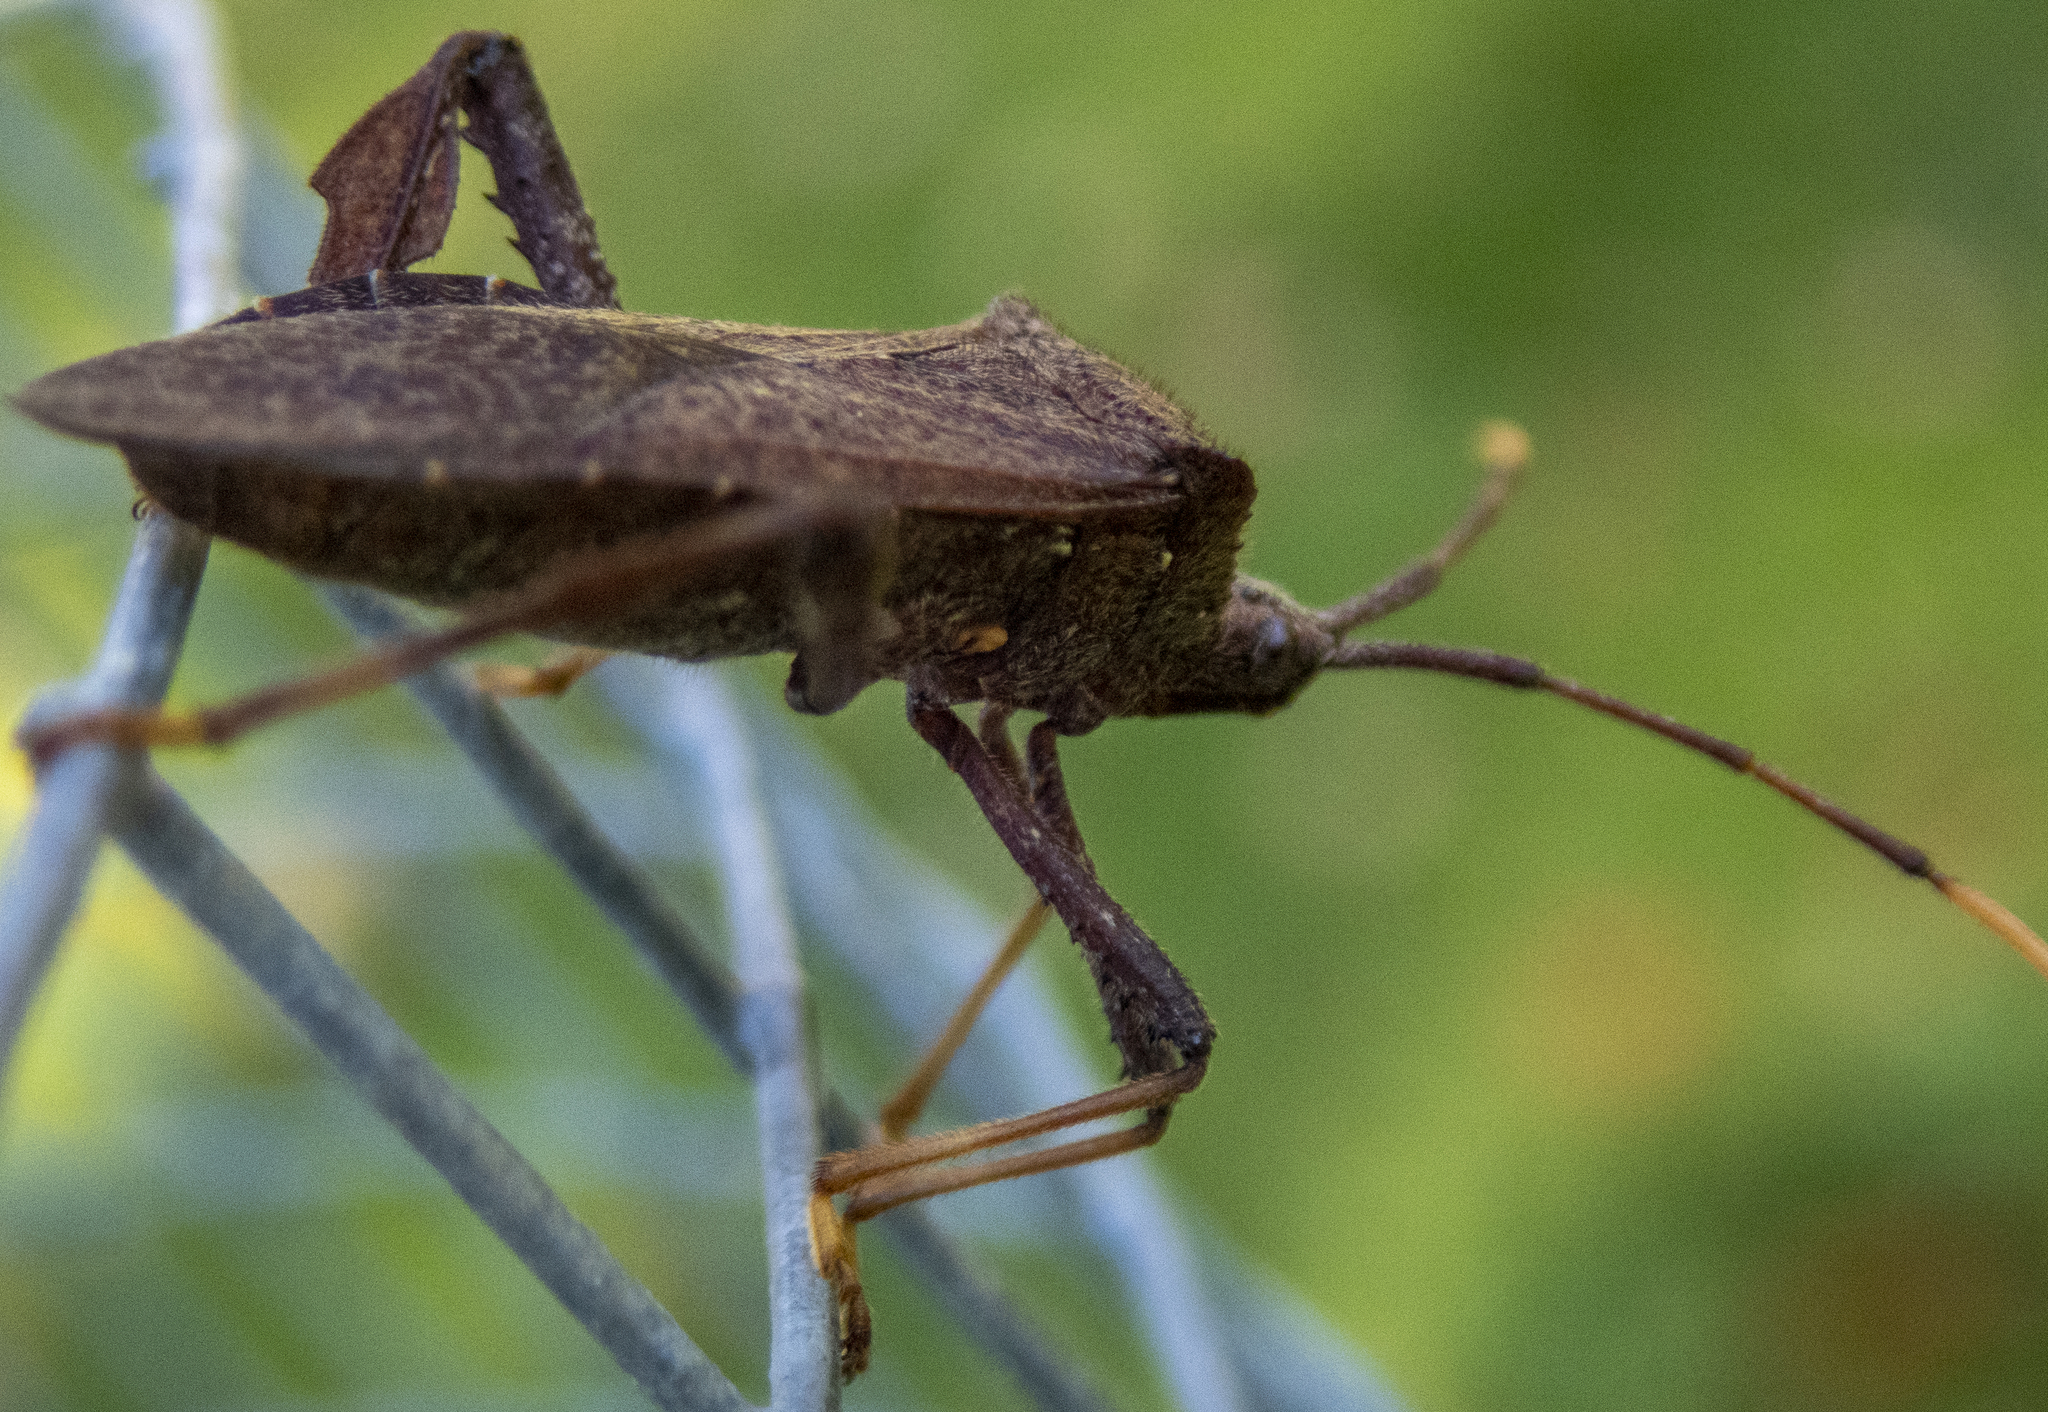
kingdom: Animalia
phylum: Arthropoda
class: Insecta
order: Hemiptera
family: Coreidae
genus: Acanthocephala
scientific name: Acanthocephala terminalis
